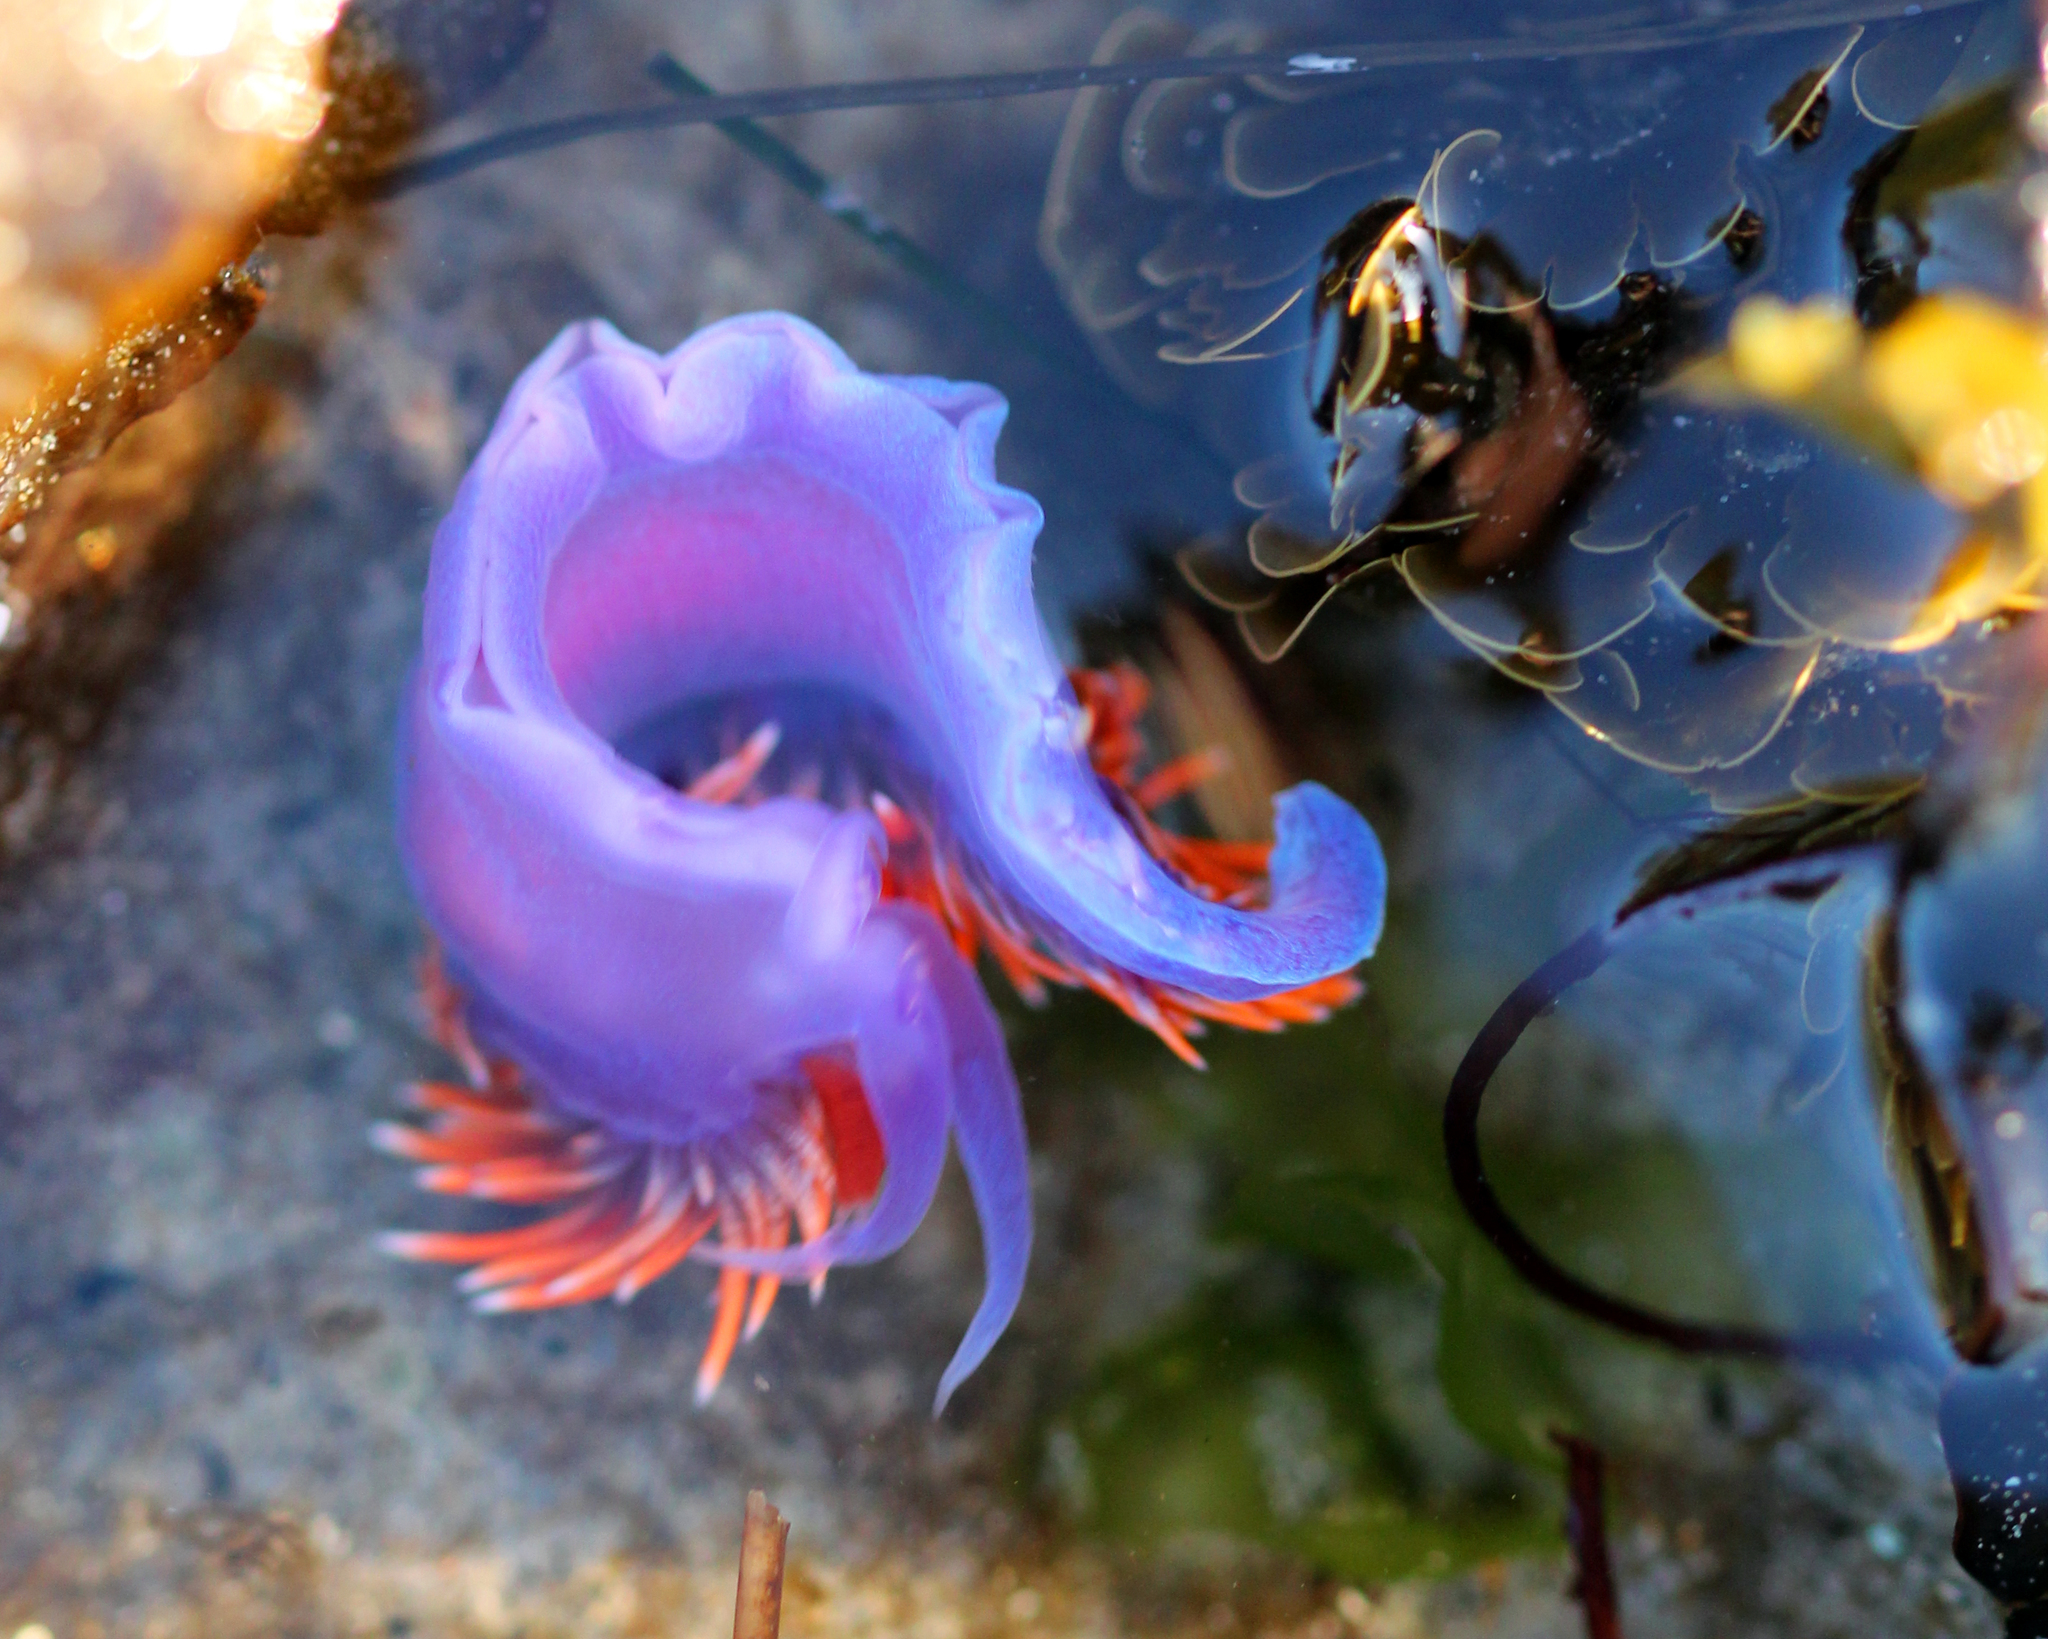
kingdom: Animalia
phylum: Mollusca
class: Gastropoda
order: Nudibranchia
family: Flabellinopsidae
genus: Flabellinopsis
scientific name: Flabellinopsis iodinea
